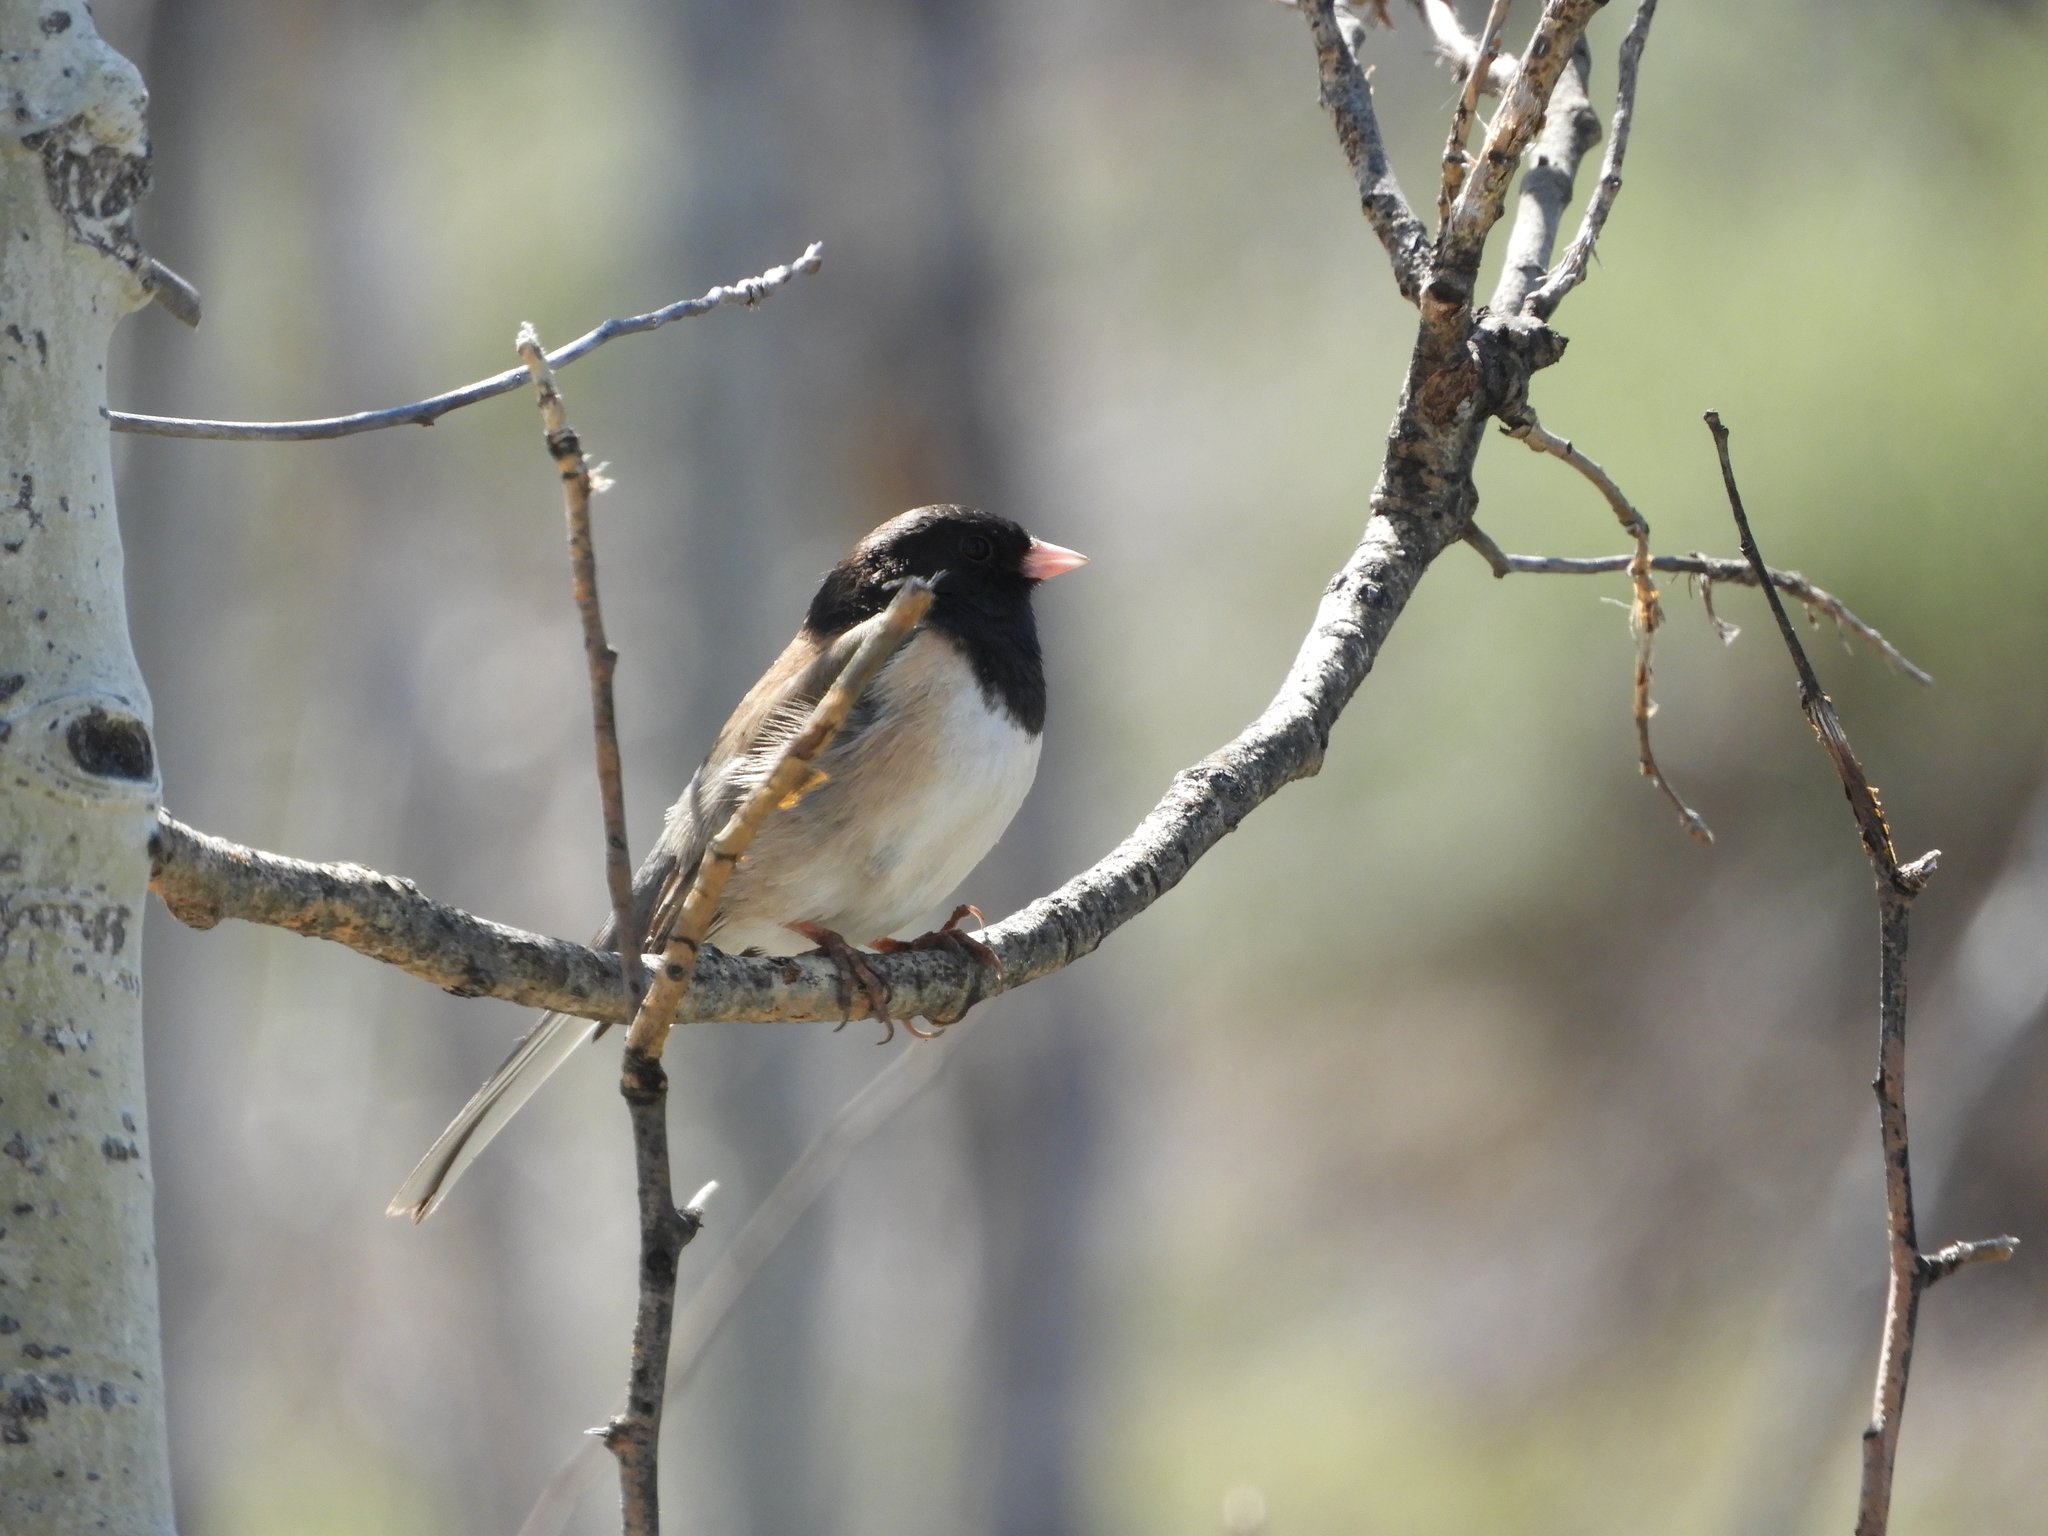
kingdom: Animalia
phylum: Chordata
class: Aves
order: Passeriformes
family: Passerellidae
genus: Junco
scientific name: Junco hyemalis
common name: Dark-eyed junco
